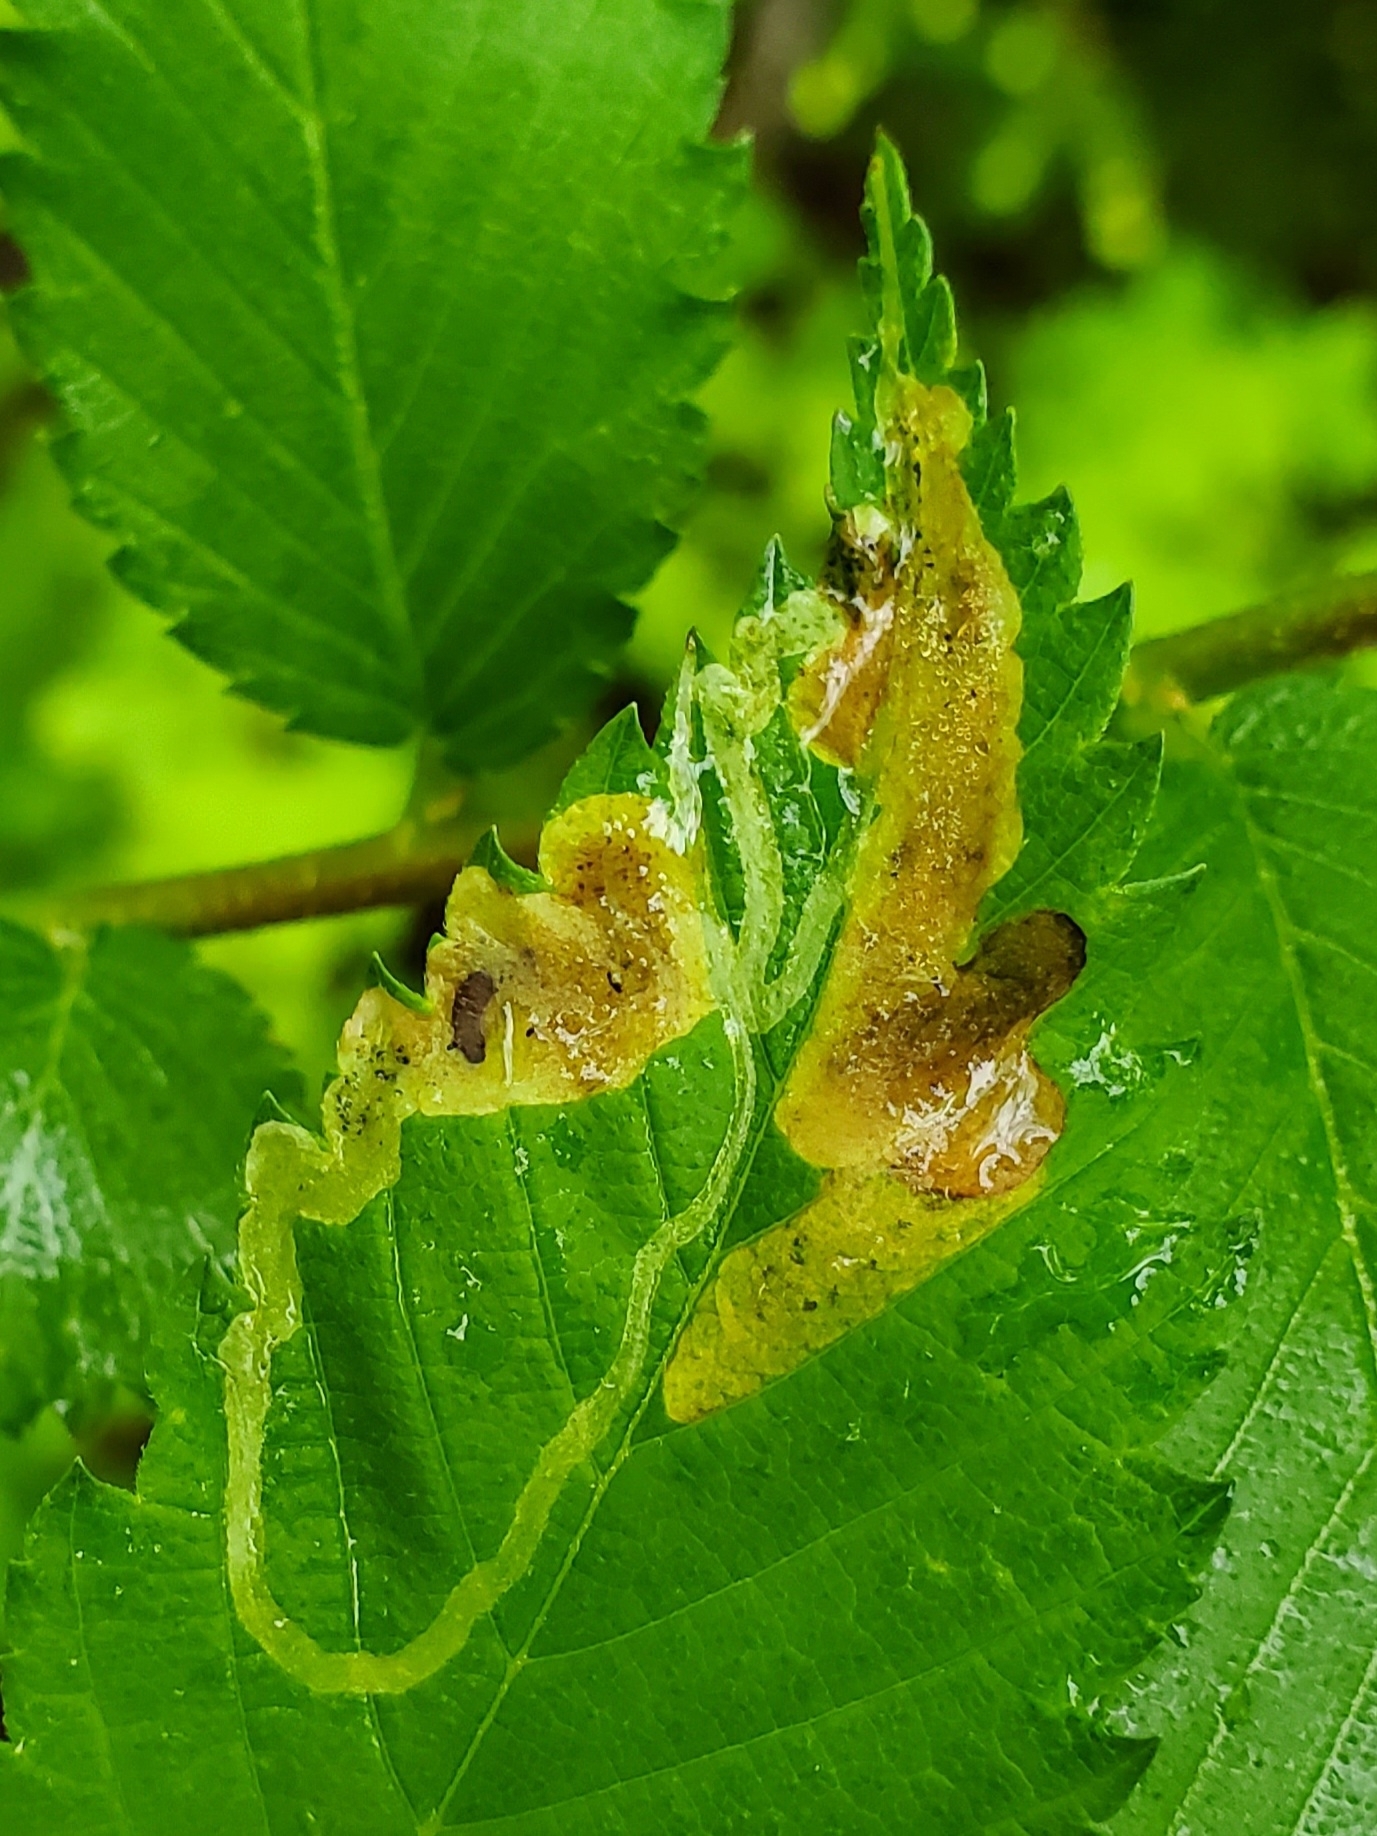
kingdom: Animalia
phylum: Arthropoda
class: Insecta
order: Diptera
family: Agromyzidae
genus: Agromyza
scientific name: Agromyza aristata
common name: Elm agromyzid leafminer
